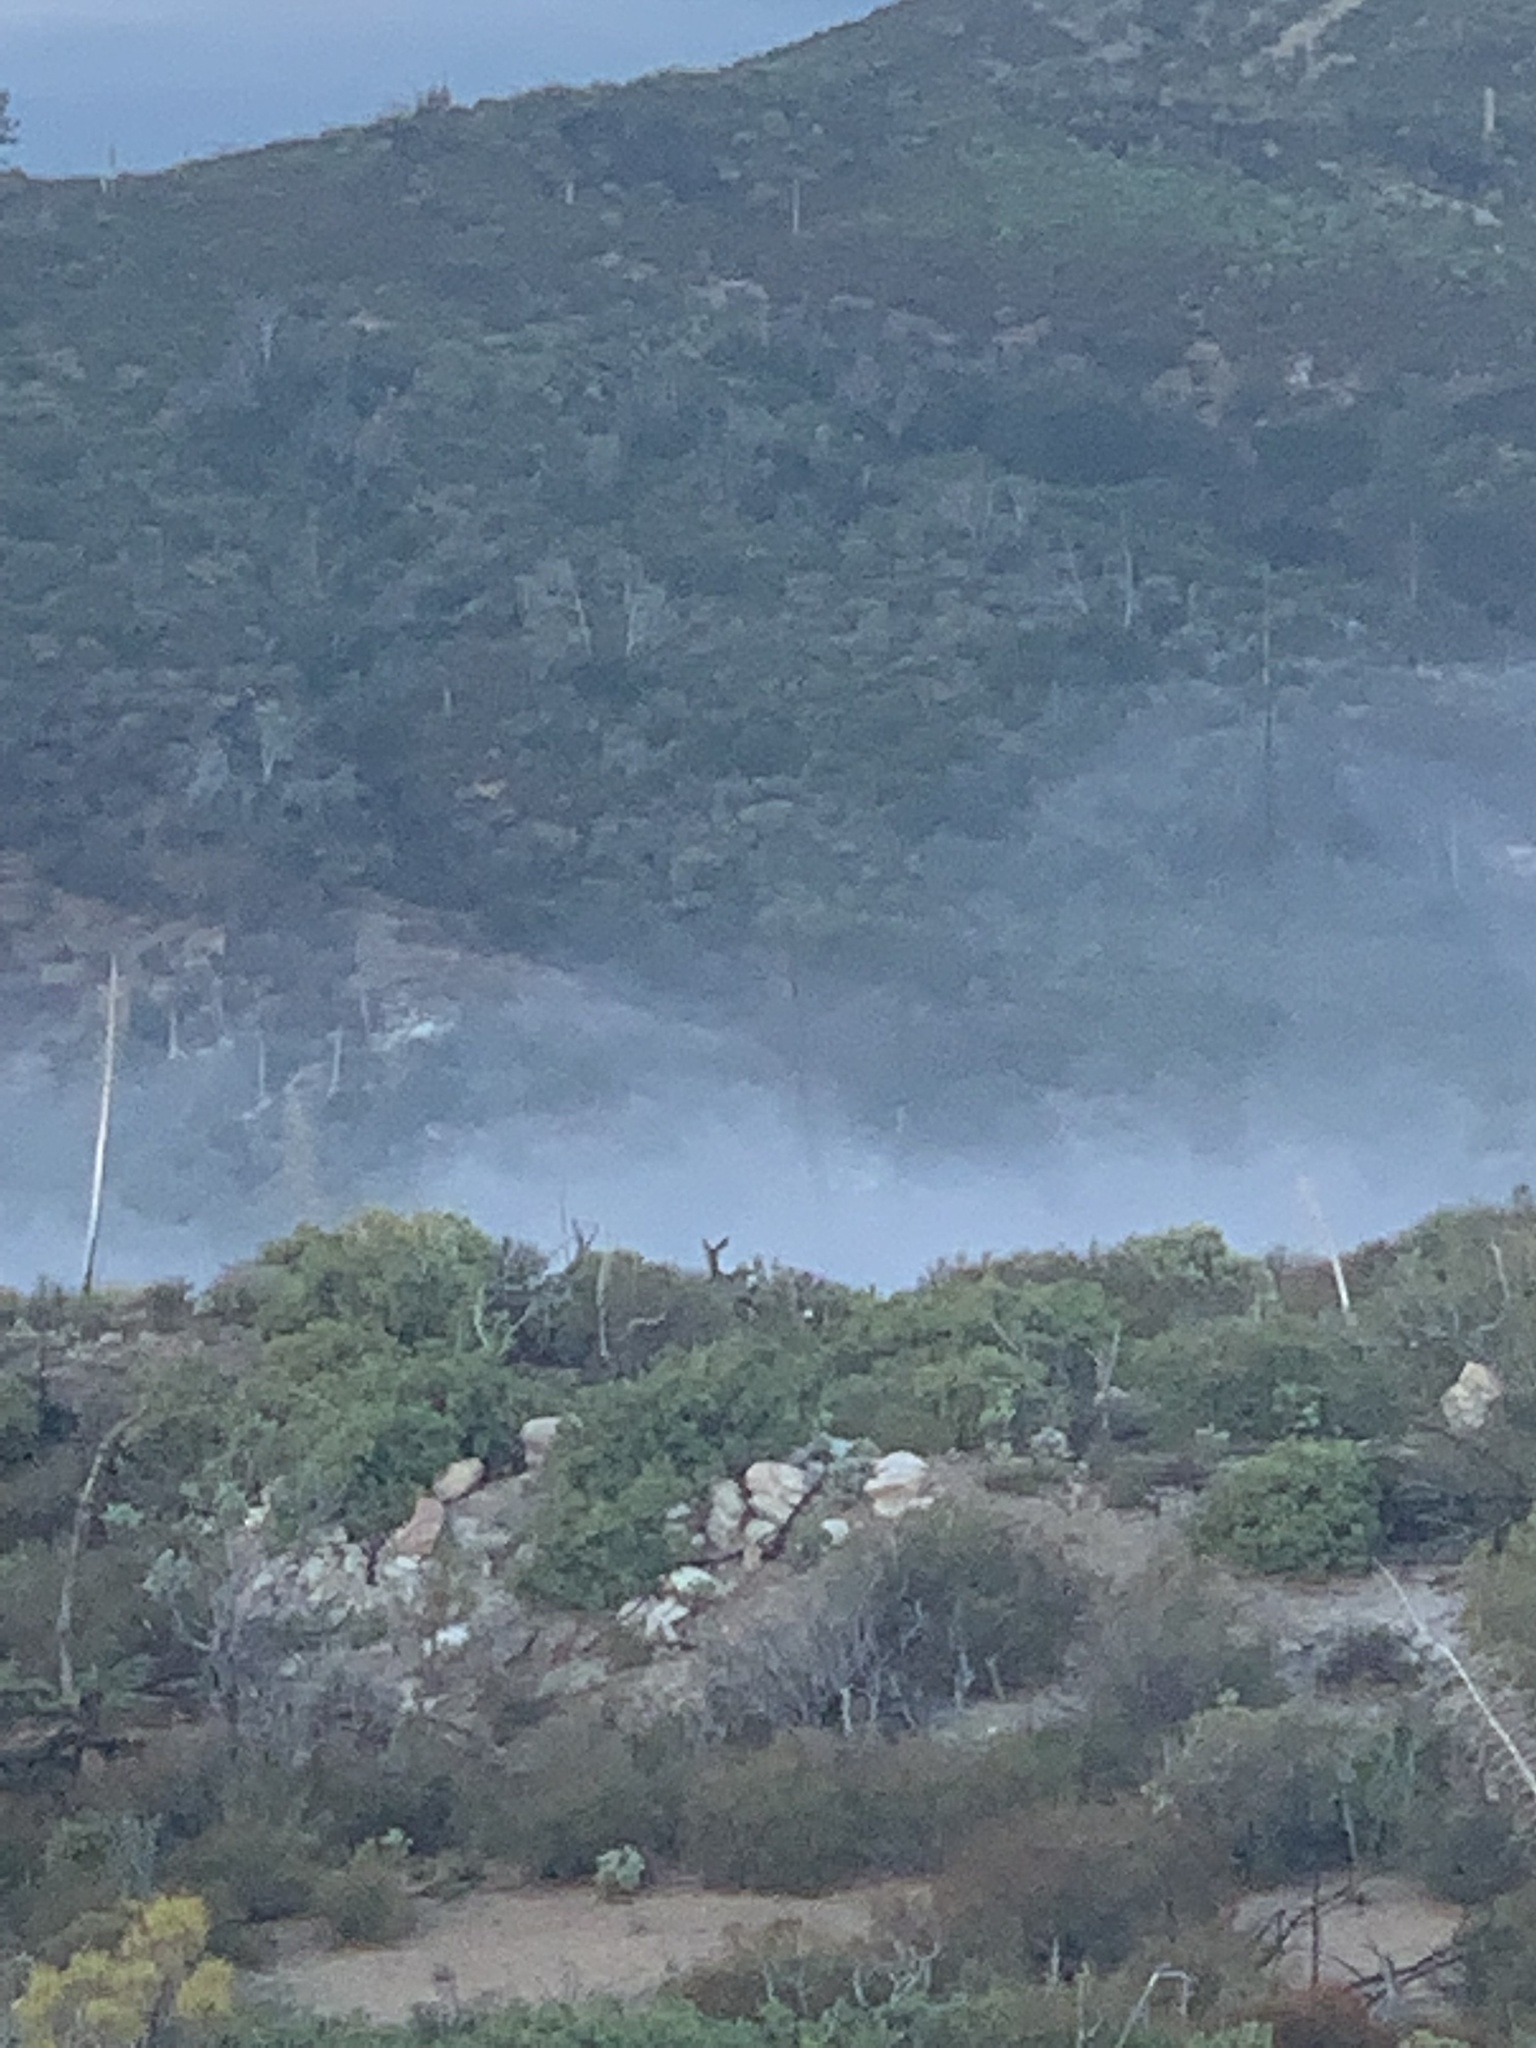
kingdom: Animalia
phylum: Chordata
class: Mammalia
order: Artiodactyla
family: Cervidae
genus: Odocoileus
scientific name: Odocoileus hemionus
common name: Mule deer
